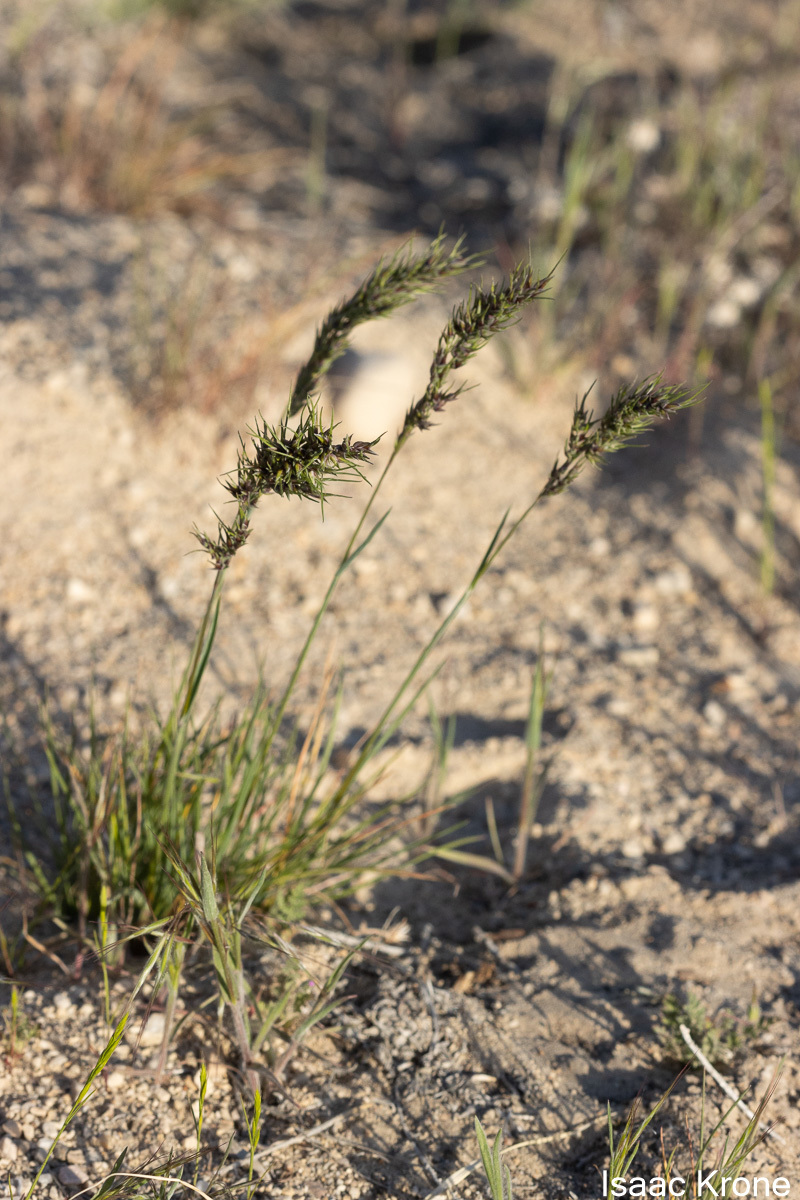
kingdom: Plantae
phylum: Tracheophyta
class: Liliopsida
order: Poales
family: Poaceae
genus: Poa
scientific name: Poa bulbosa
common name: Bulbous bluegrass
